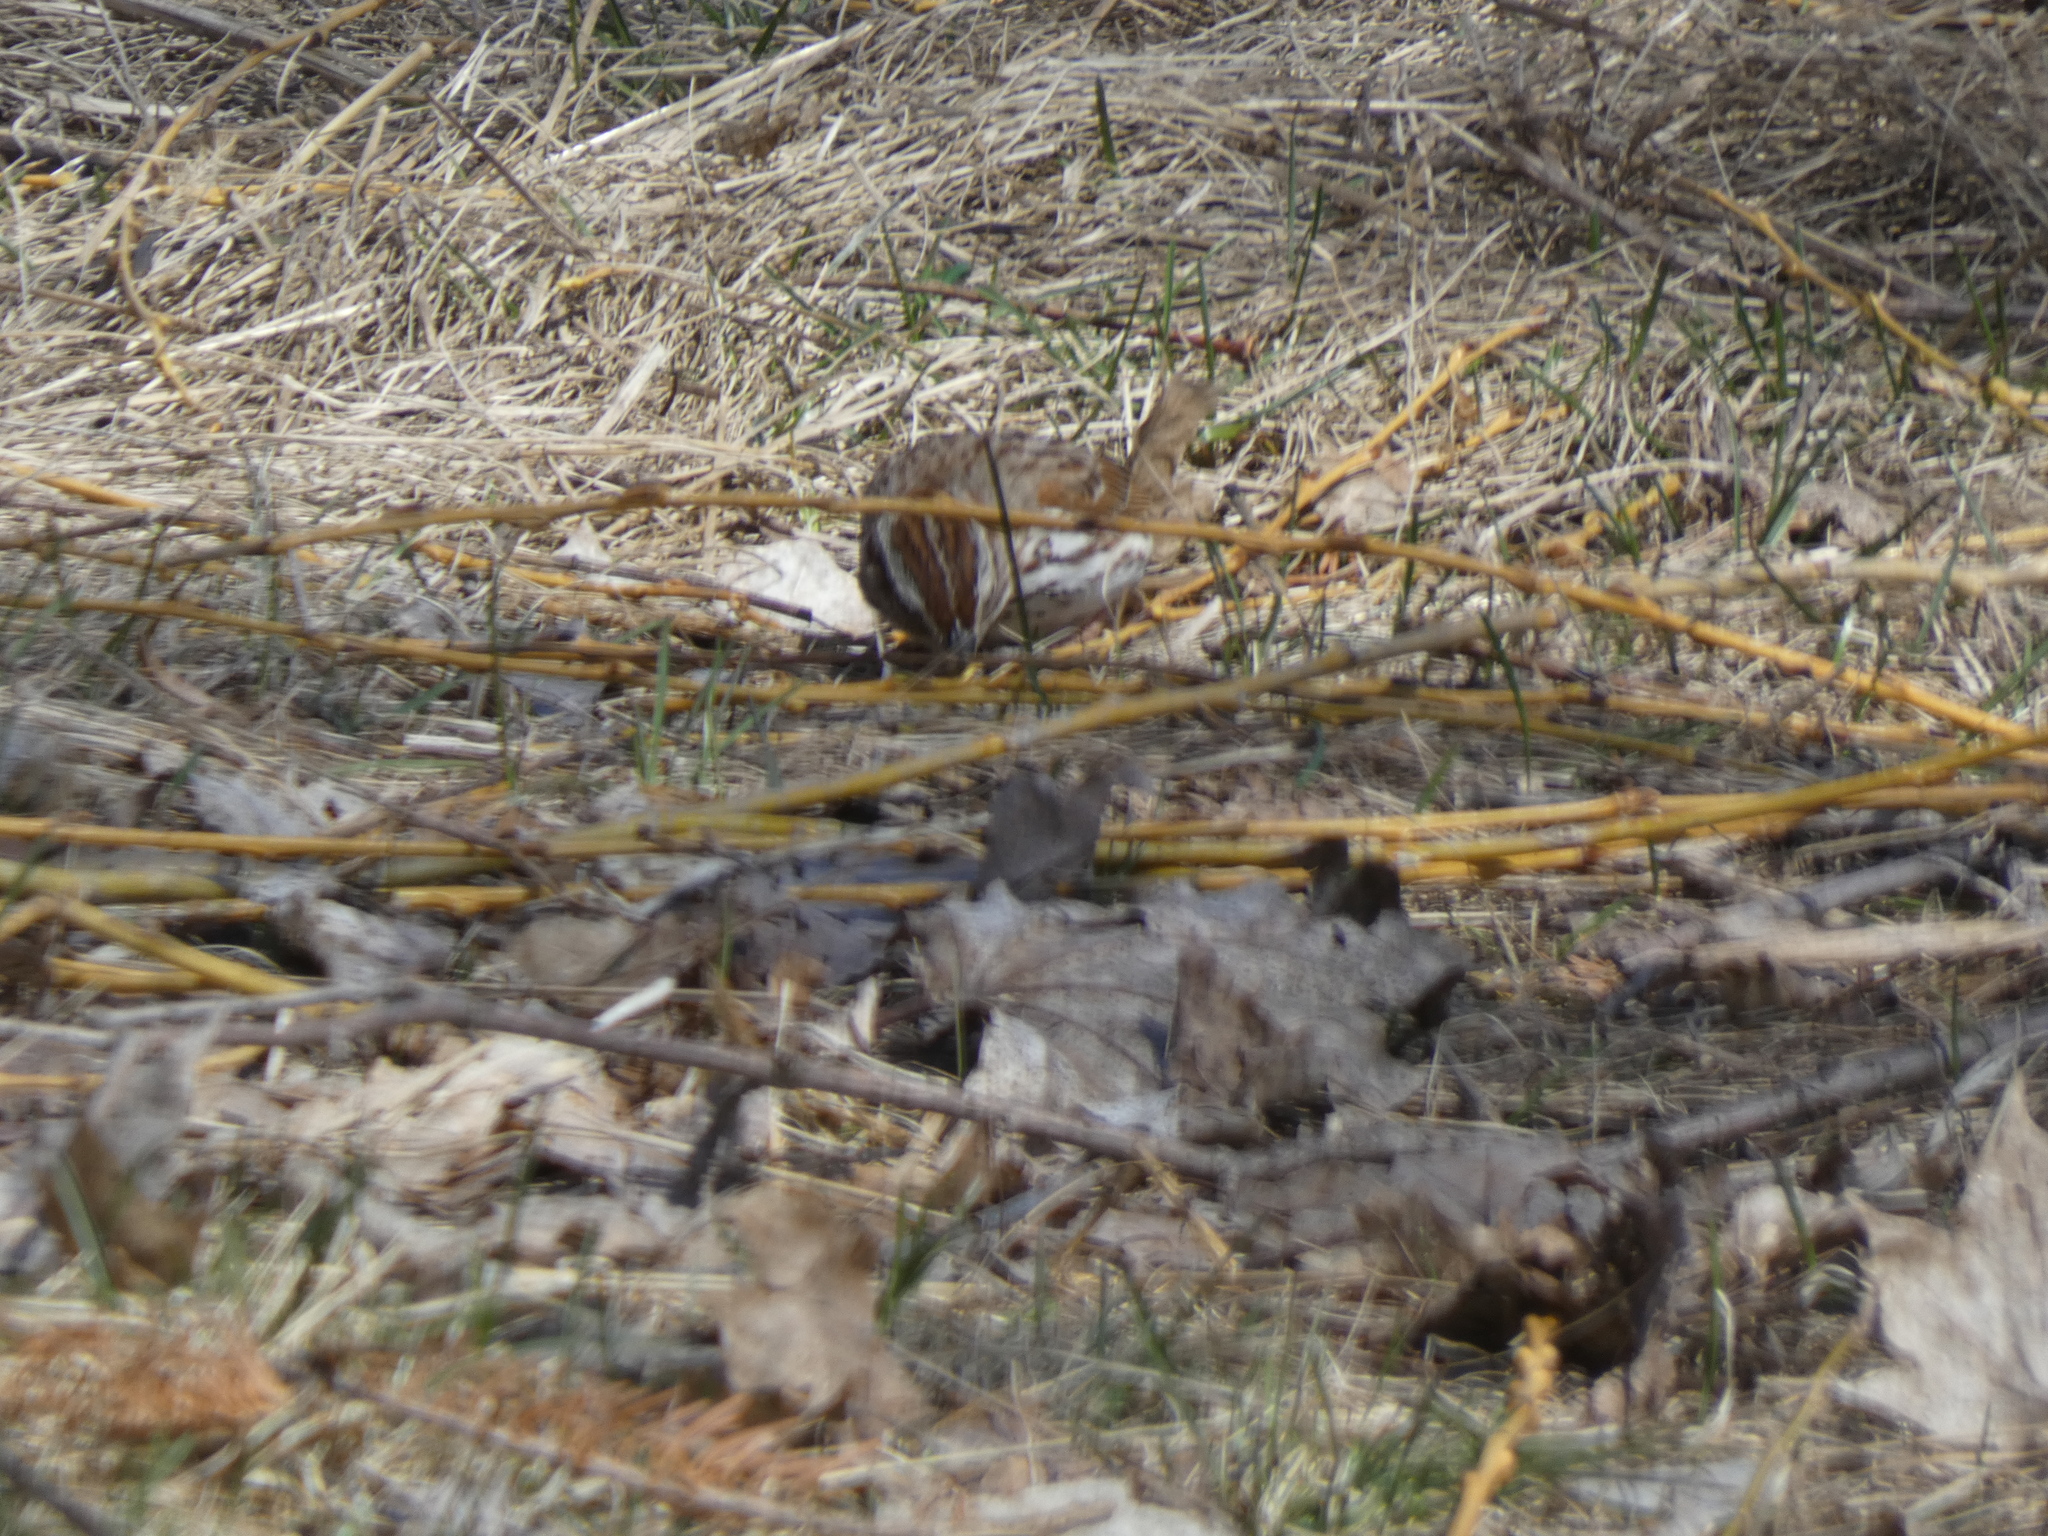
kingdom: Animalia
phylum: Chordata
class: Aves
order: Passeriformes
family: Passerellidae
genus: Melospiza
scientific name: Melospiza melodia
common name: Song sparrow
